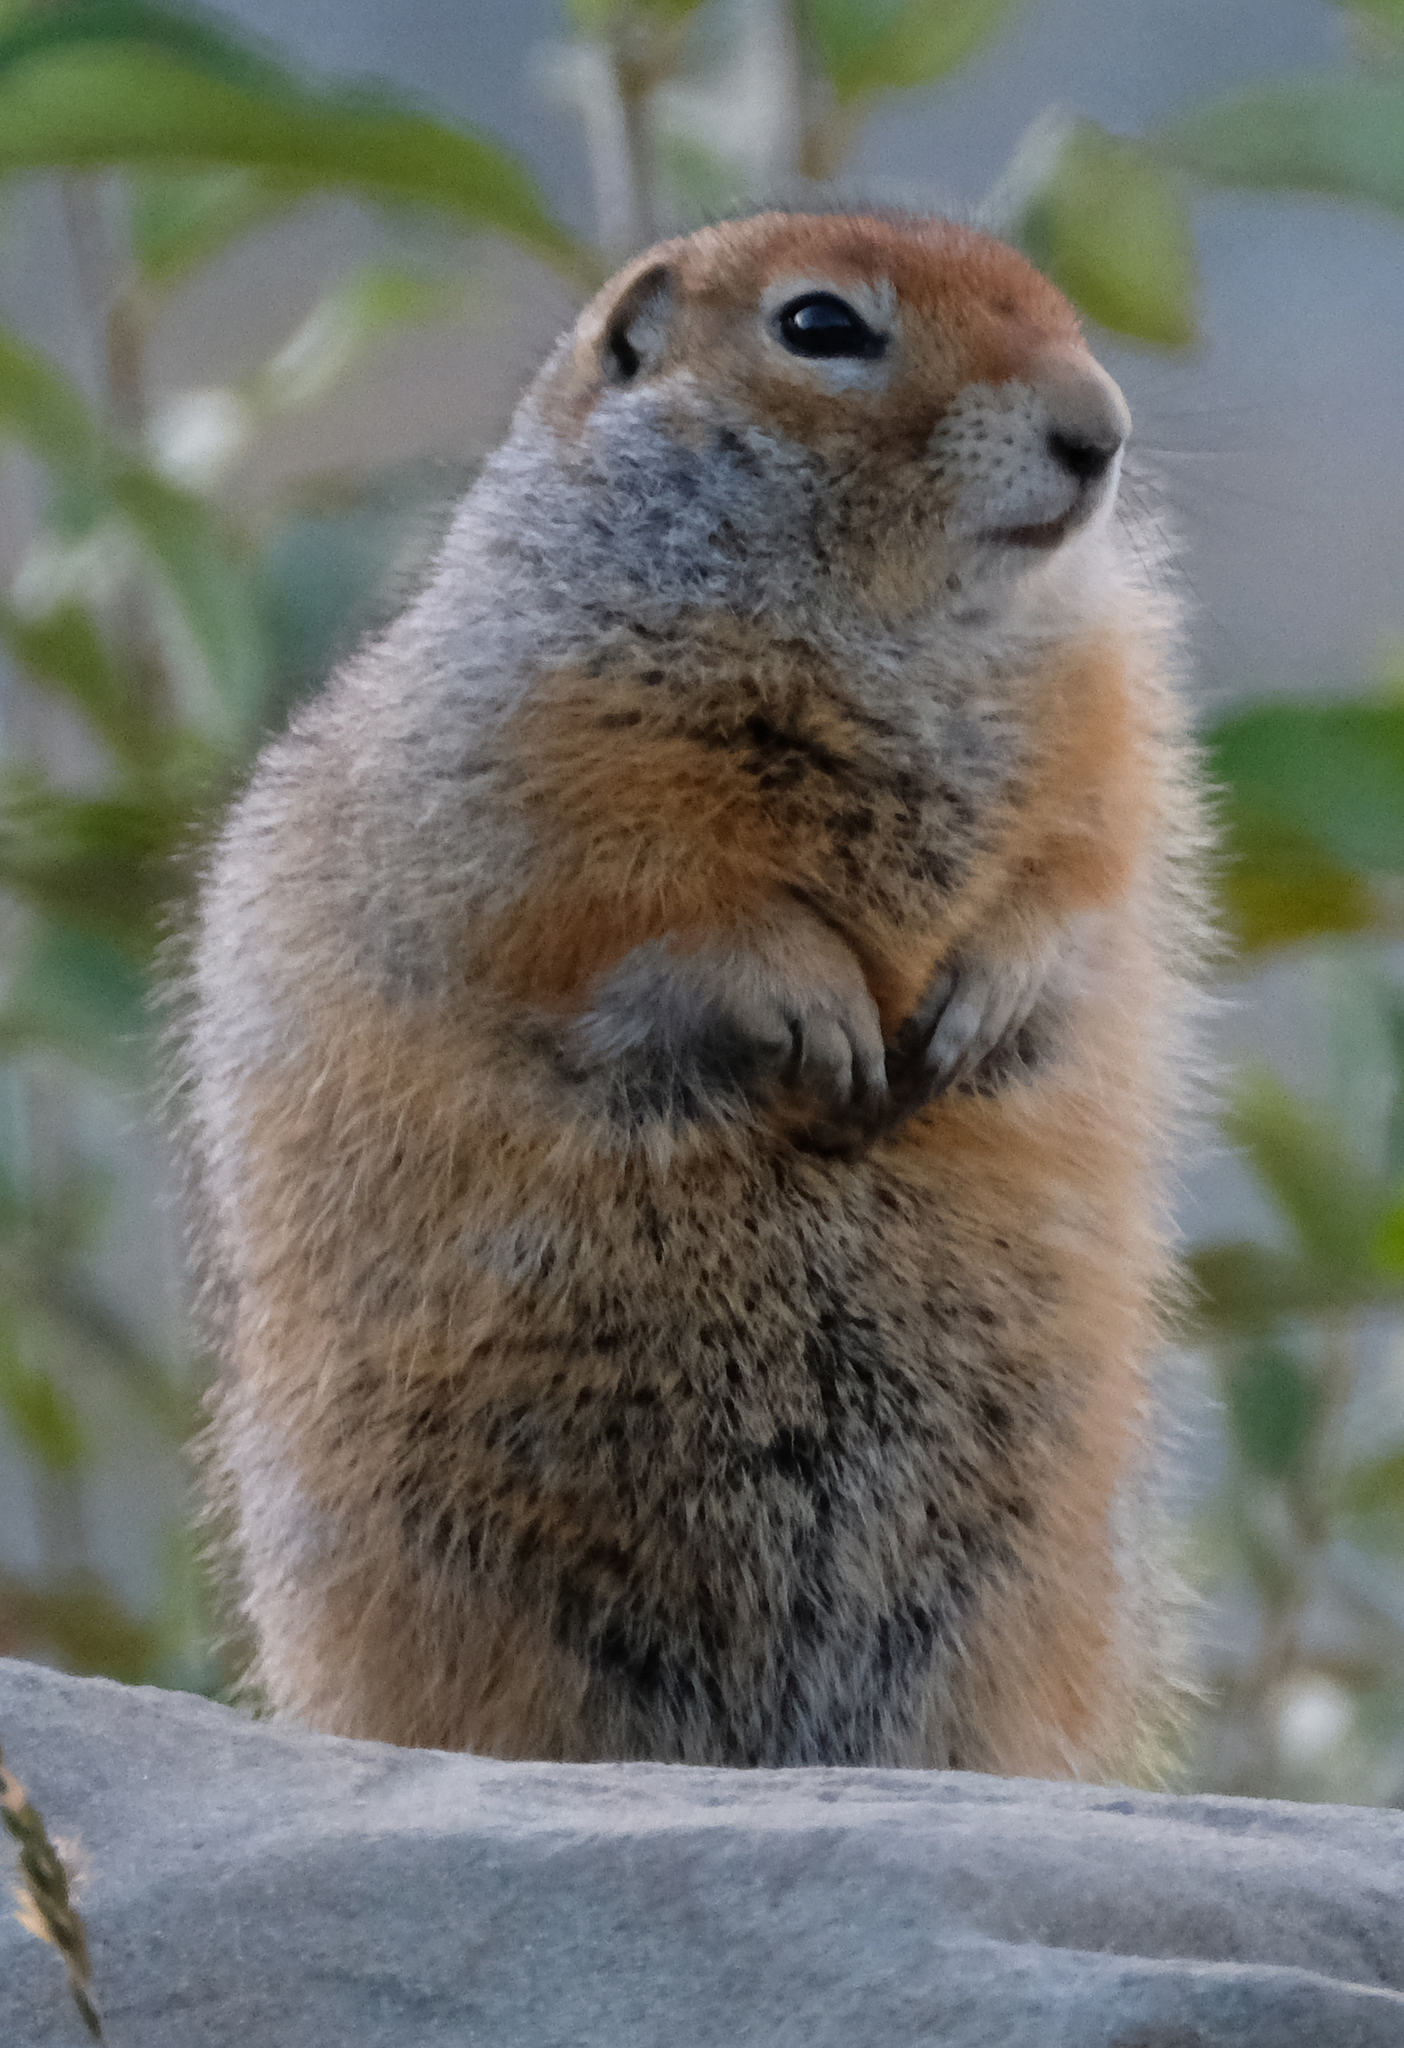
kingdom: Animalia
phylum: Chordata
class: Mammalia
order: Rodentia
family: Sciuridae
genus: Urocitellus
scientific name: Urocitellus parryii
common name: Arctic ground squirrel
